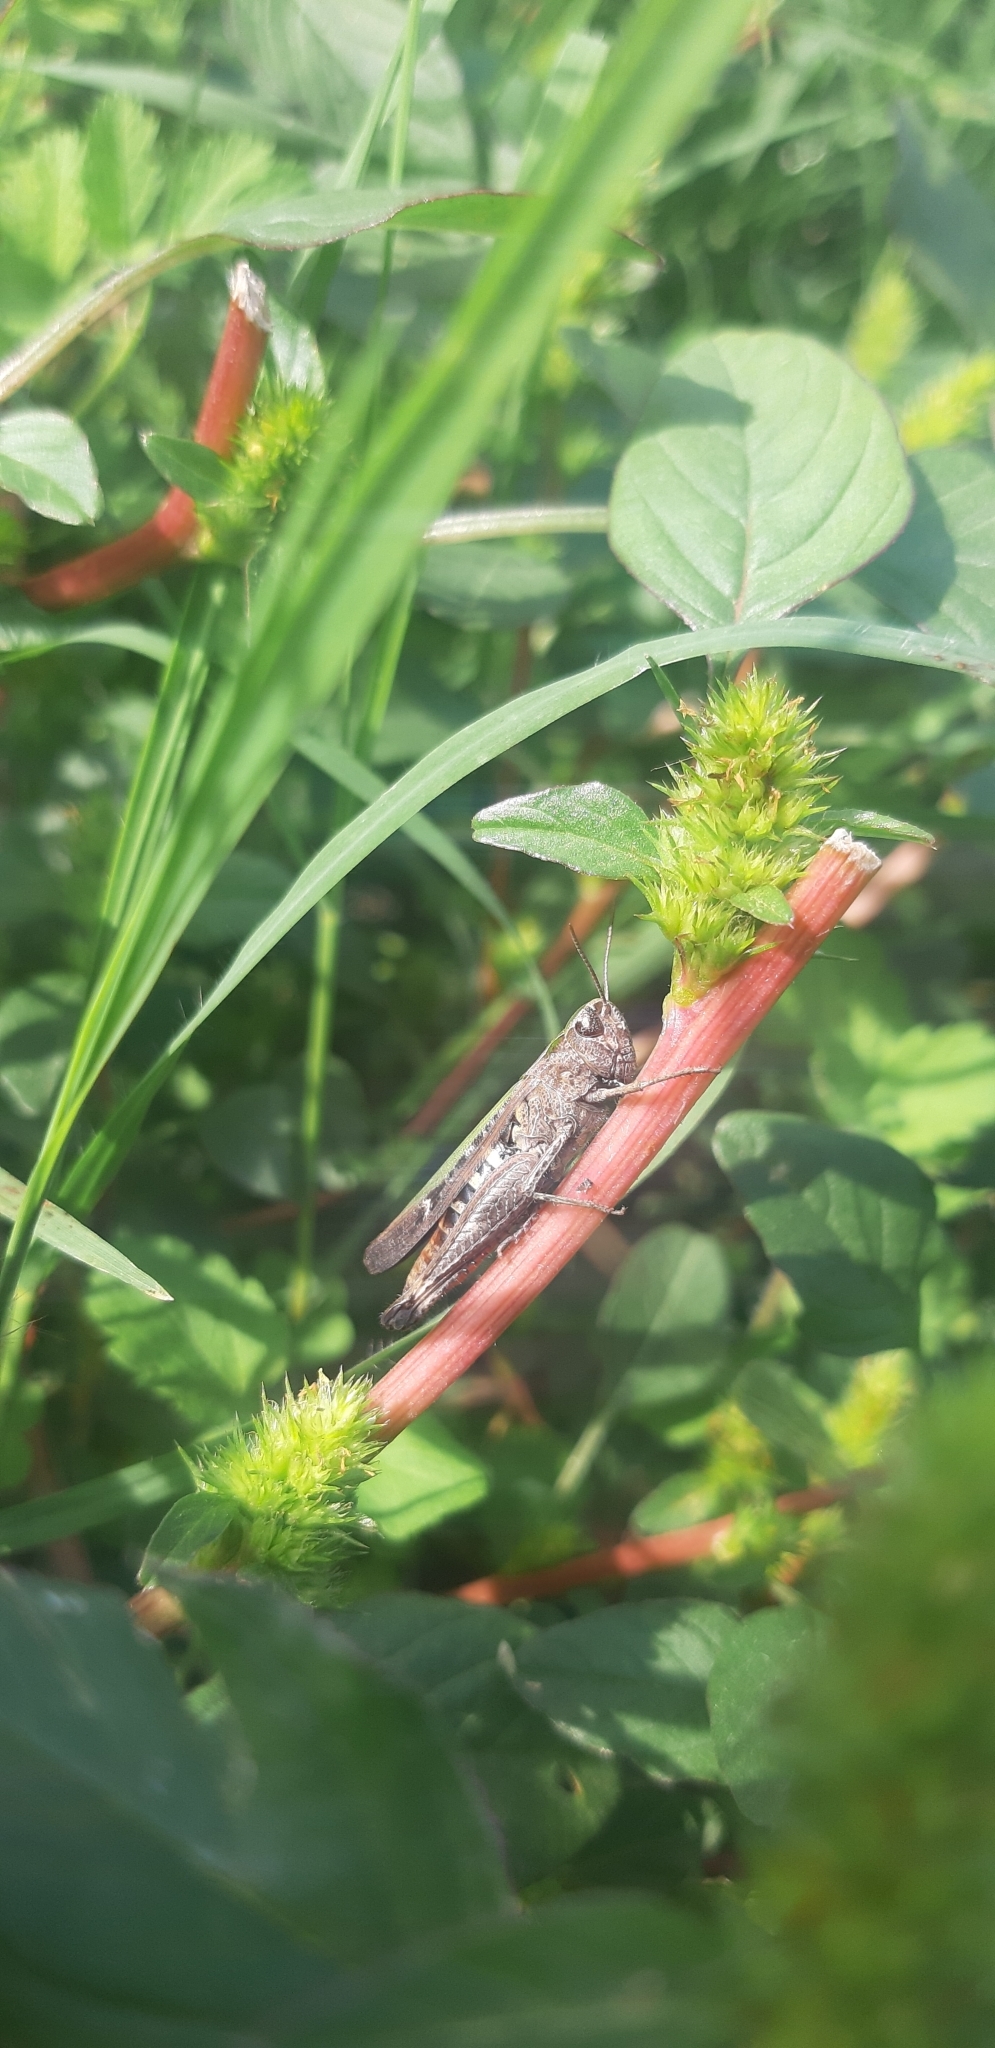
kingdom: Animalia
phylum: Arthropoda
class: Insecta
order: Orthoptera
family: Acrididae
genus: Omocestus
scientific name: Omocestus rufipes
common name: Woodland grasshopper
